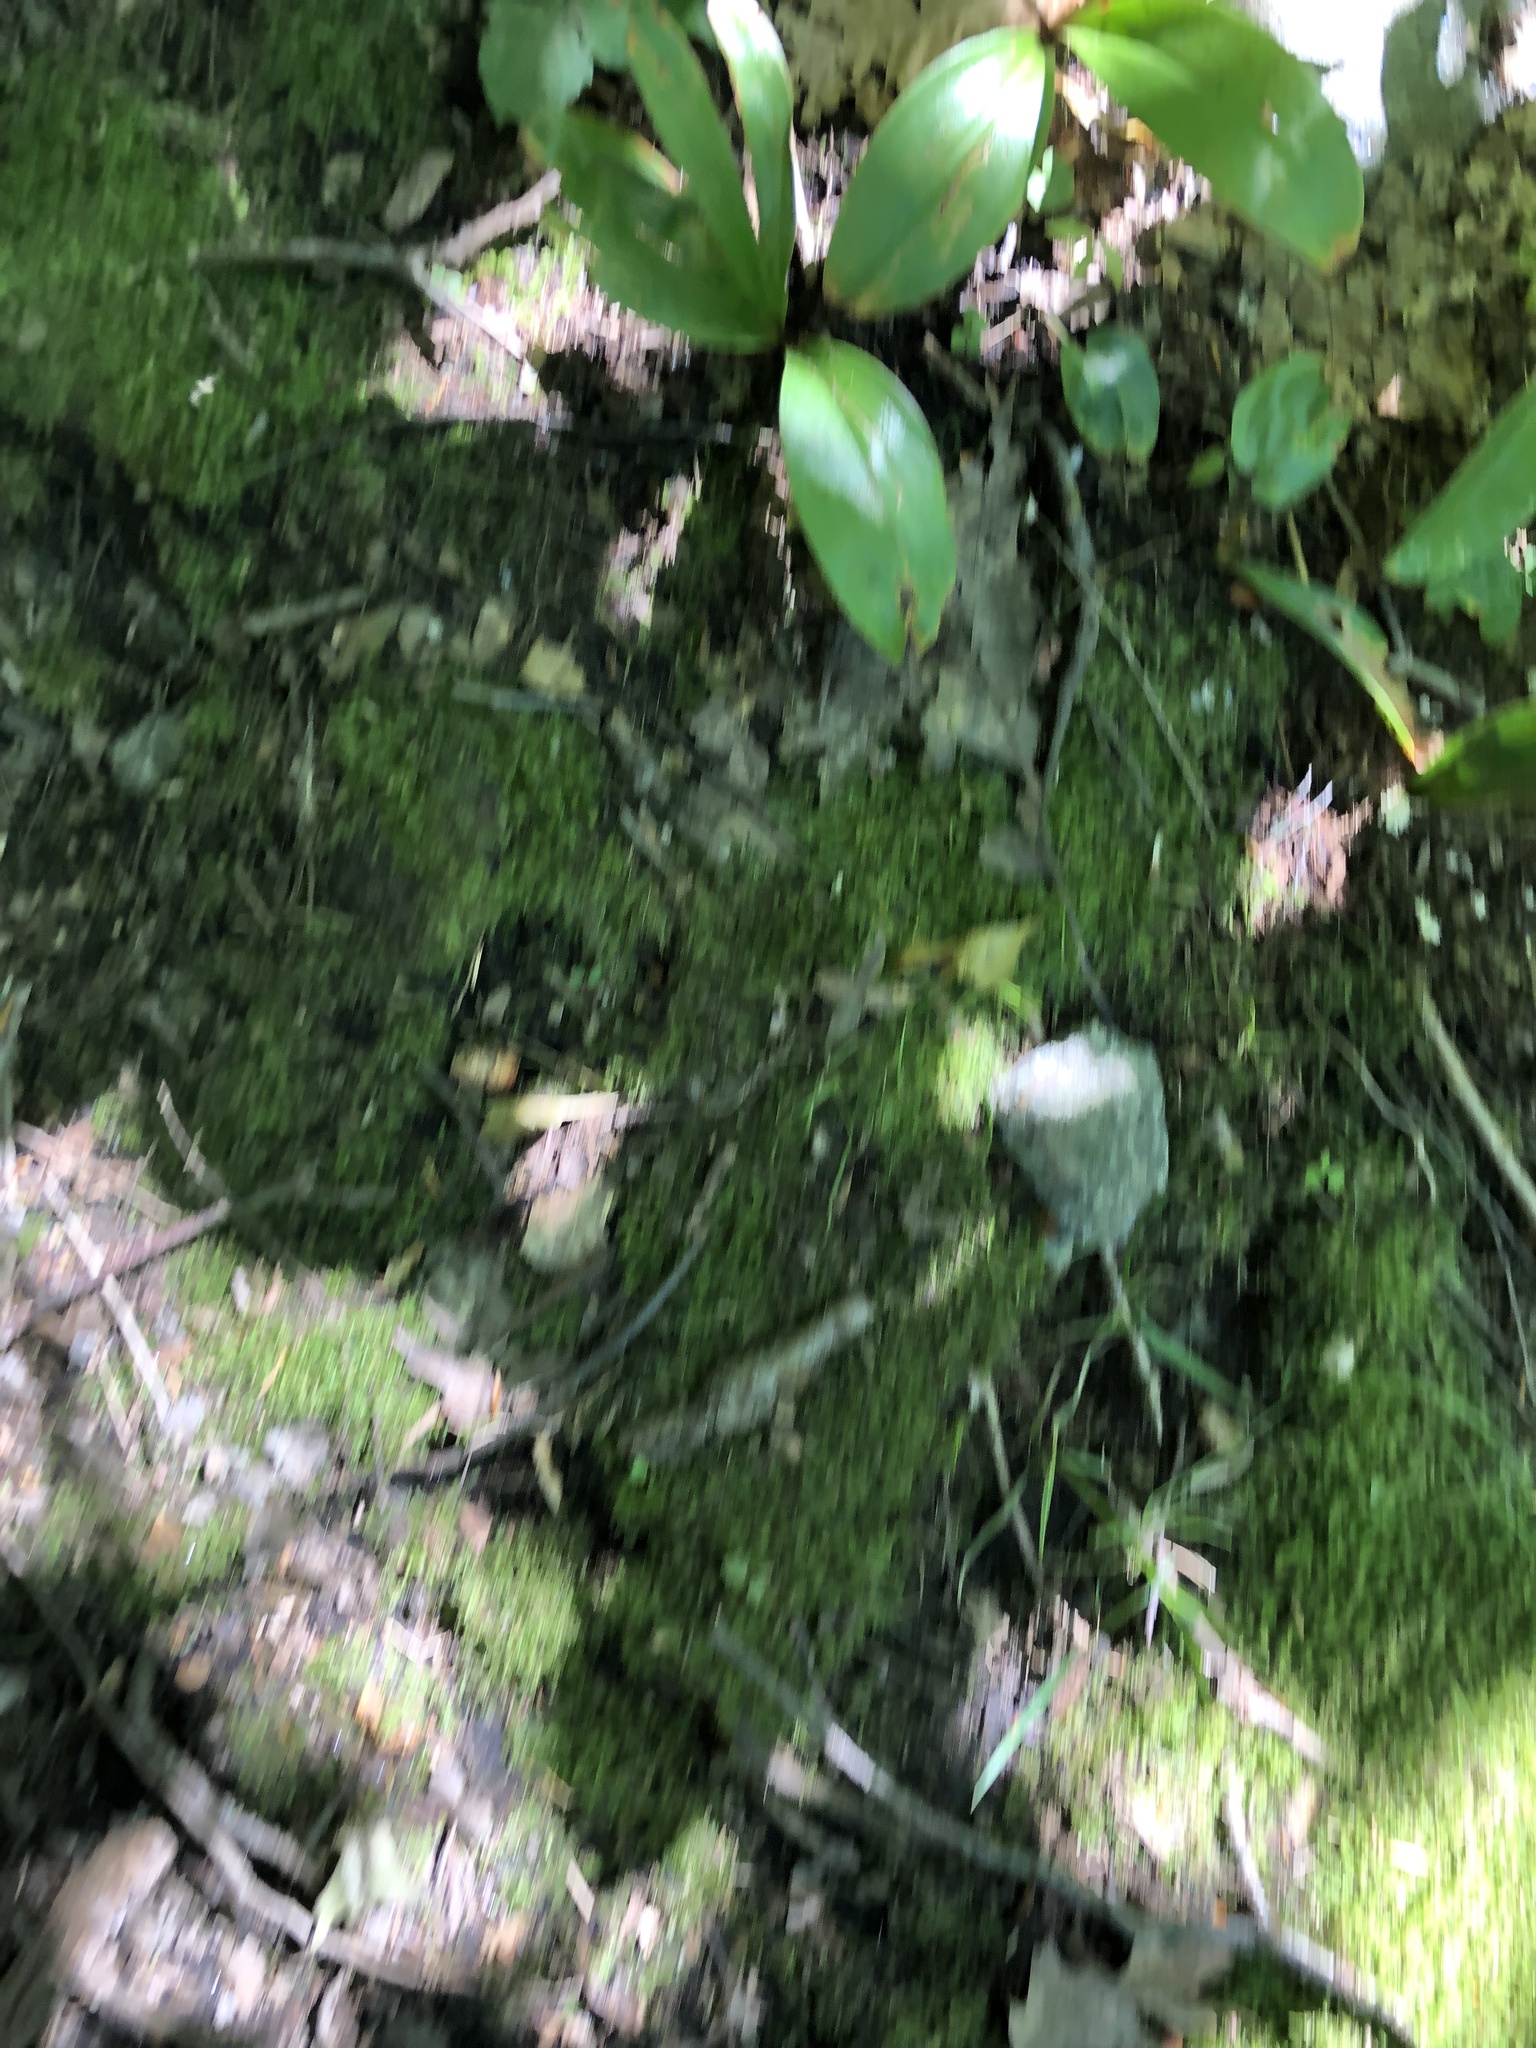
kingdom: Plantae
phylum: Tracheophyta
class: Liliopsida
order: Liliales
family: Liliaceae
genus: Clintonia
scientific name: Clintonia borealis
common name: Yellow clintonia
